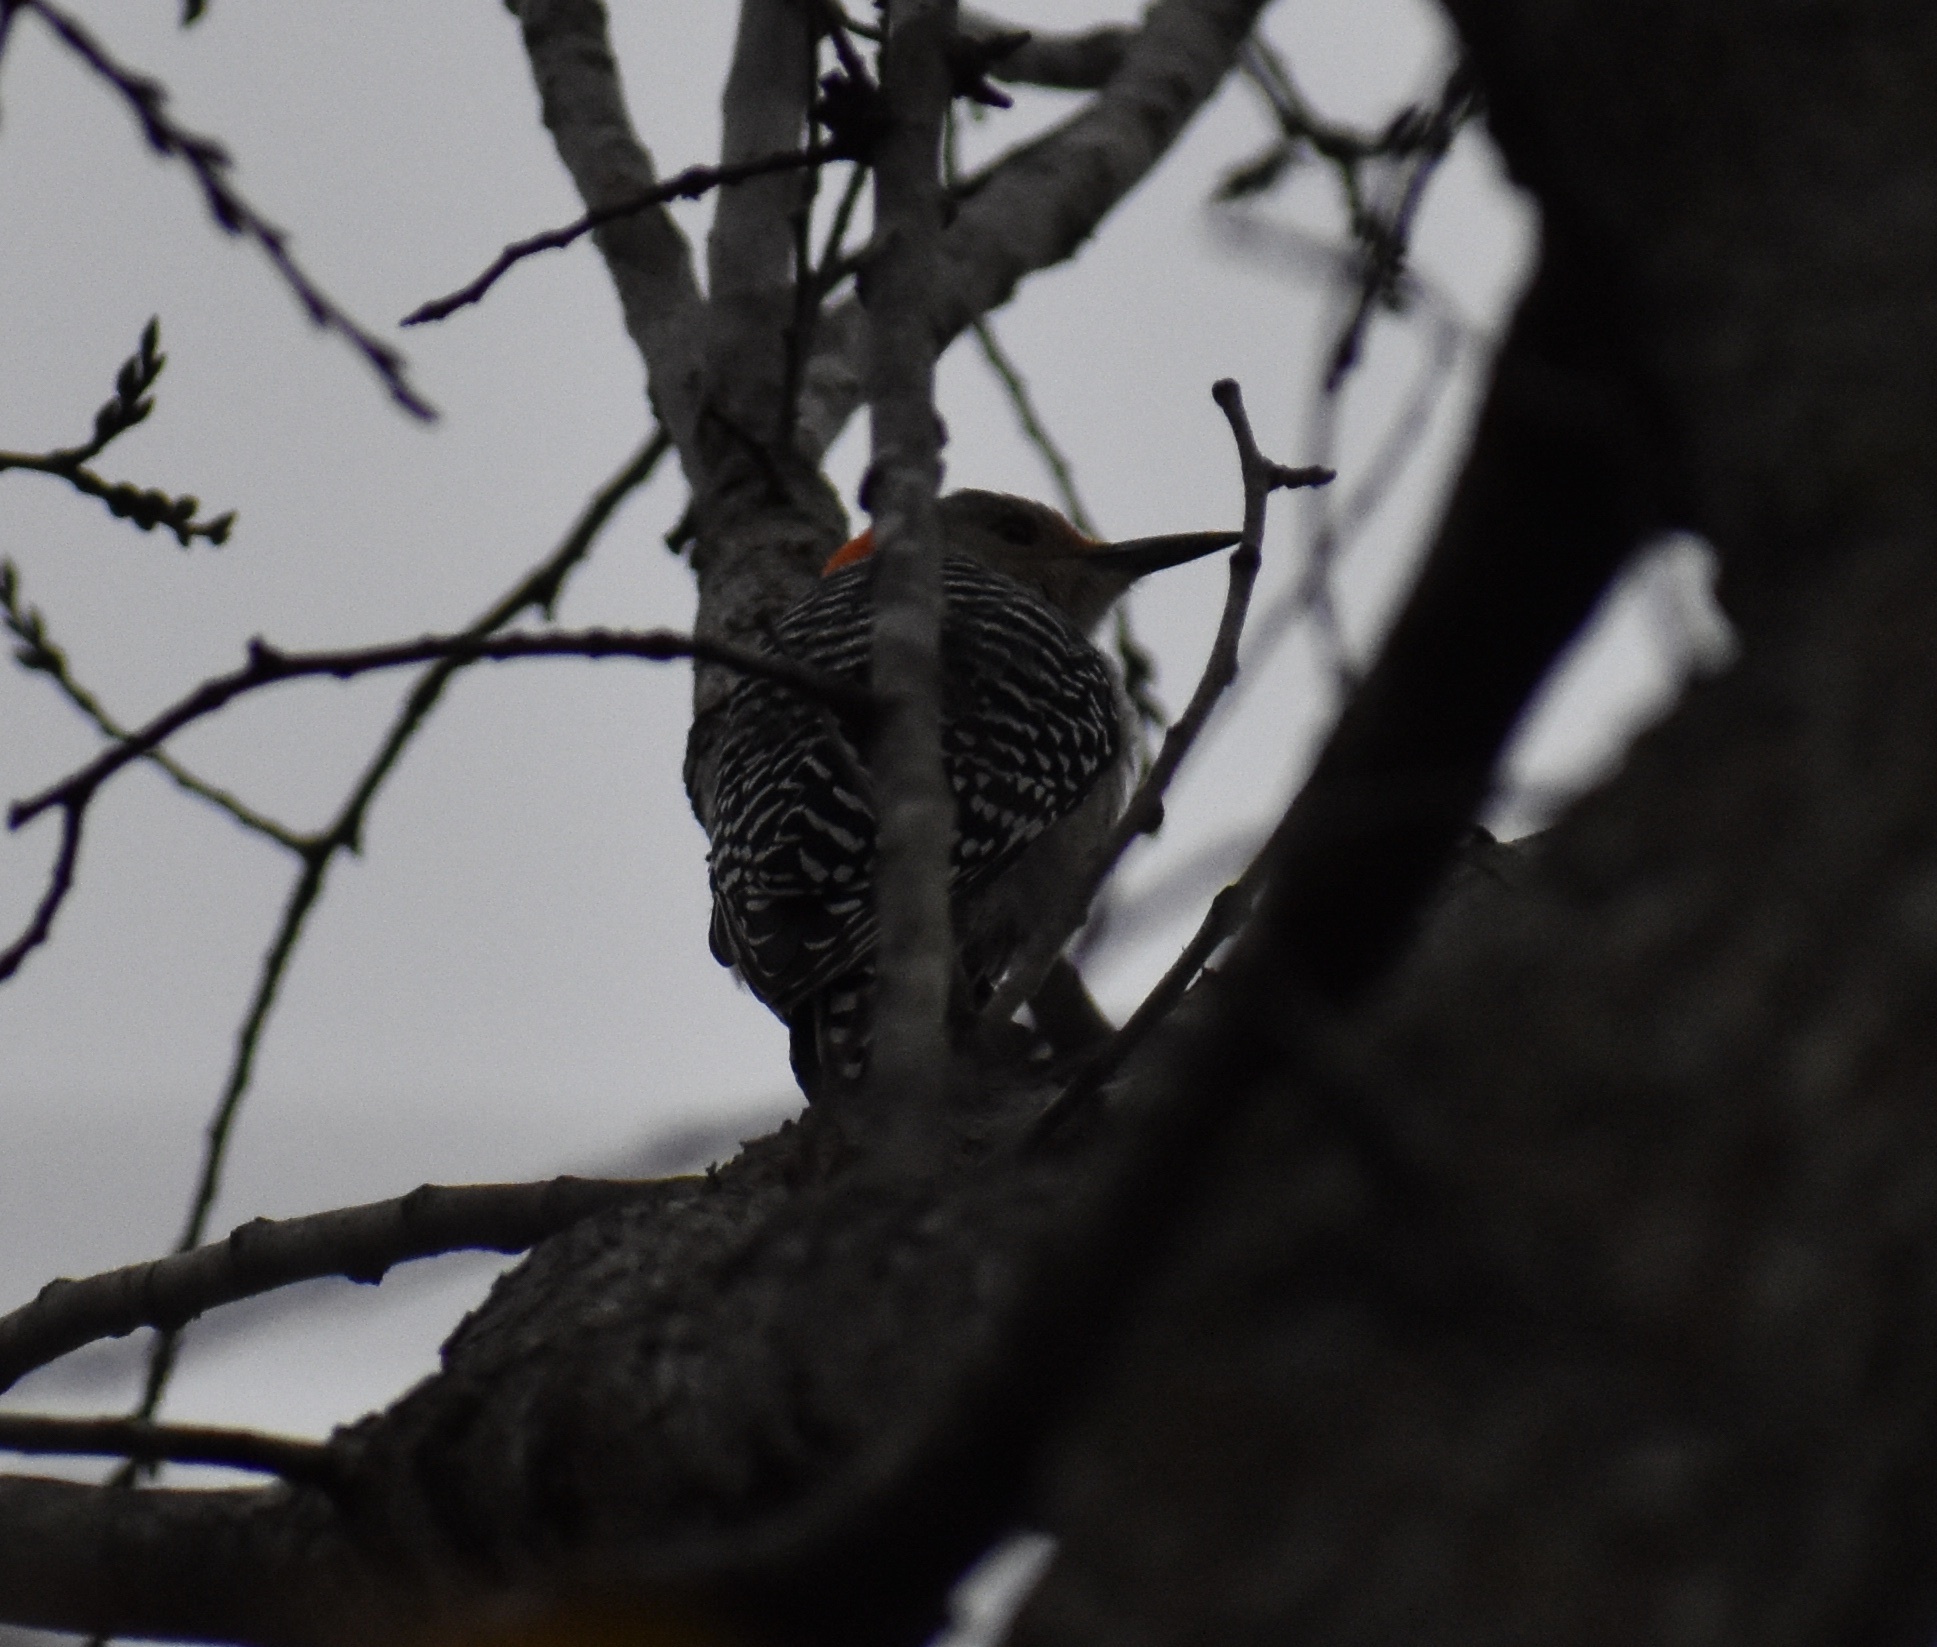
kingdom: Animalia
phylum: Chordata
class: Aves
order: Piciformes
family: Picidae
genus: Melanerpes
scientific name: Melanerpes carolinus
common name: Red-bellied woodpecker
